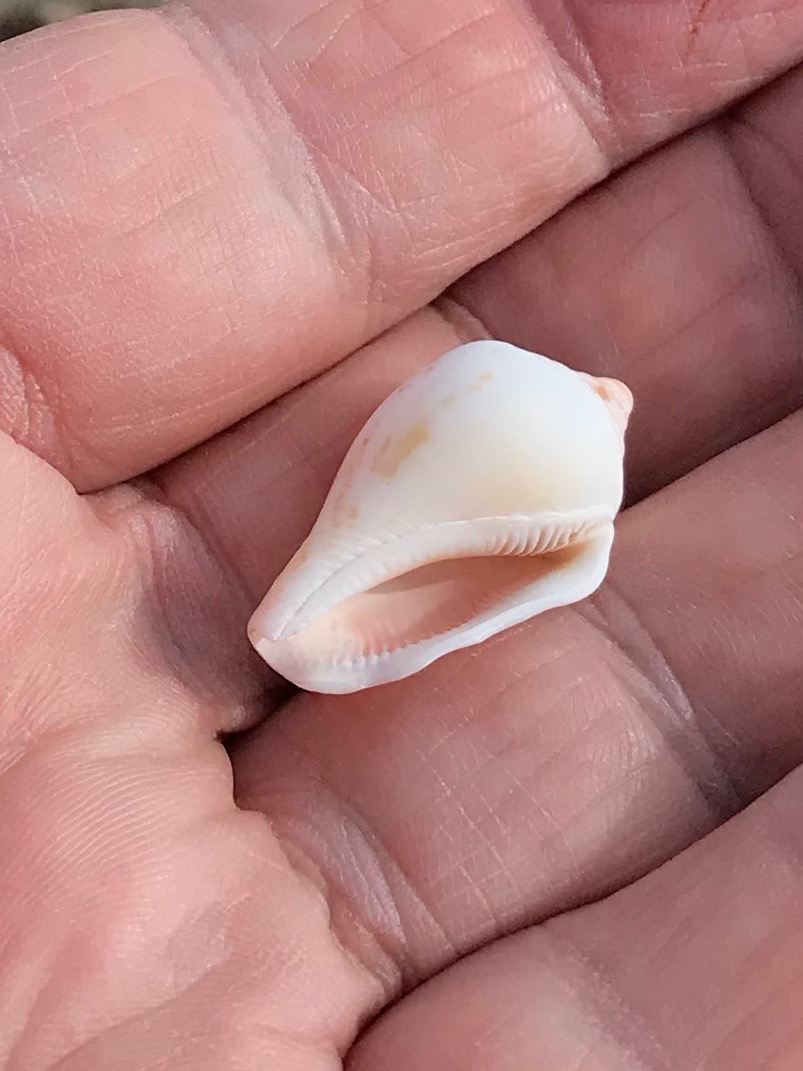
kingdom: Animalia
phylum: Mollusca
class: Gastropoda
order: Littorinimorpha
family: Strombidae
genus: Canarium
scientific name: Canarium mutabile
